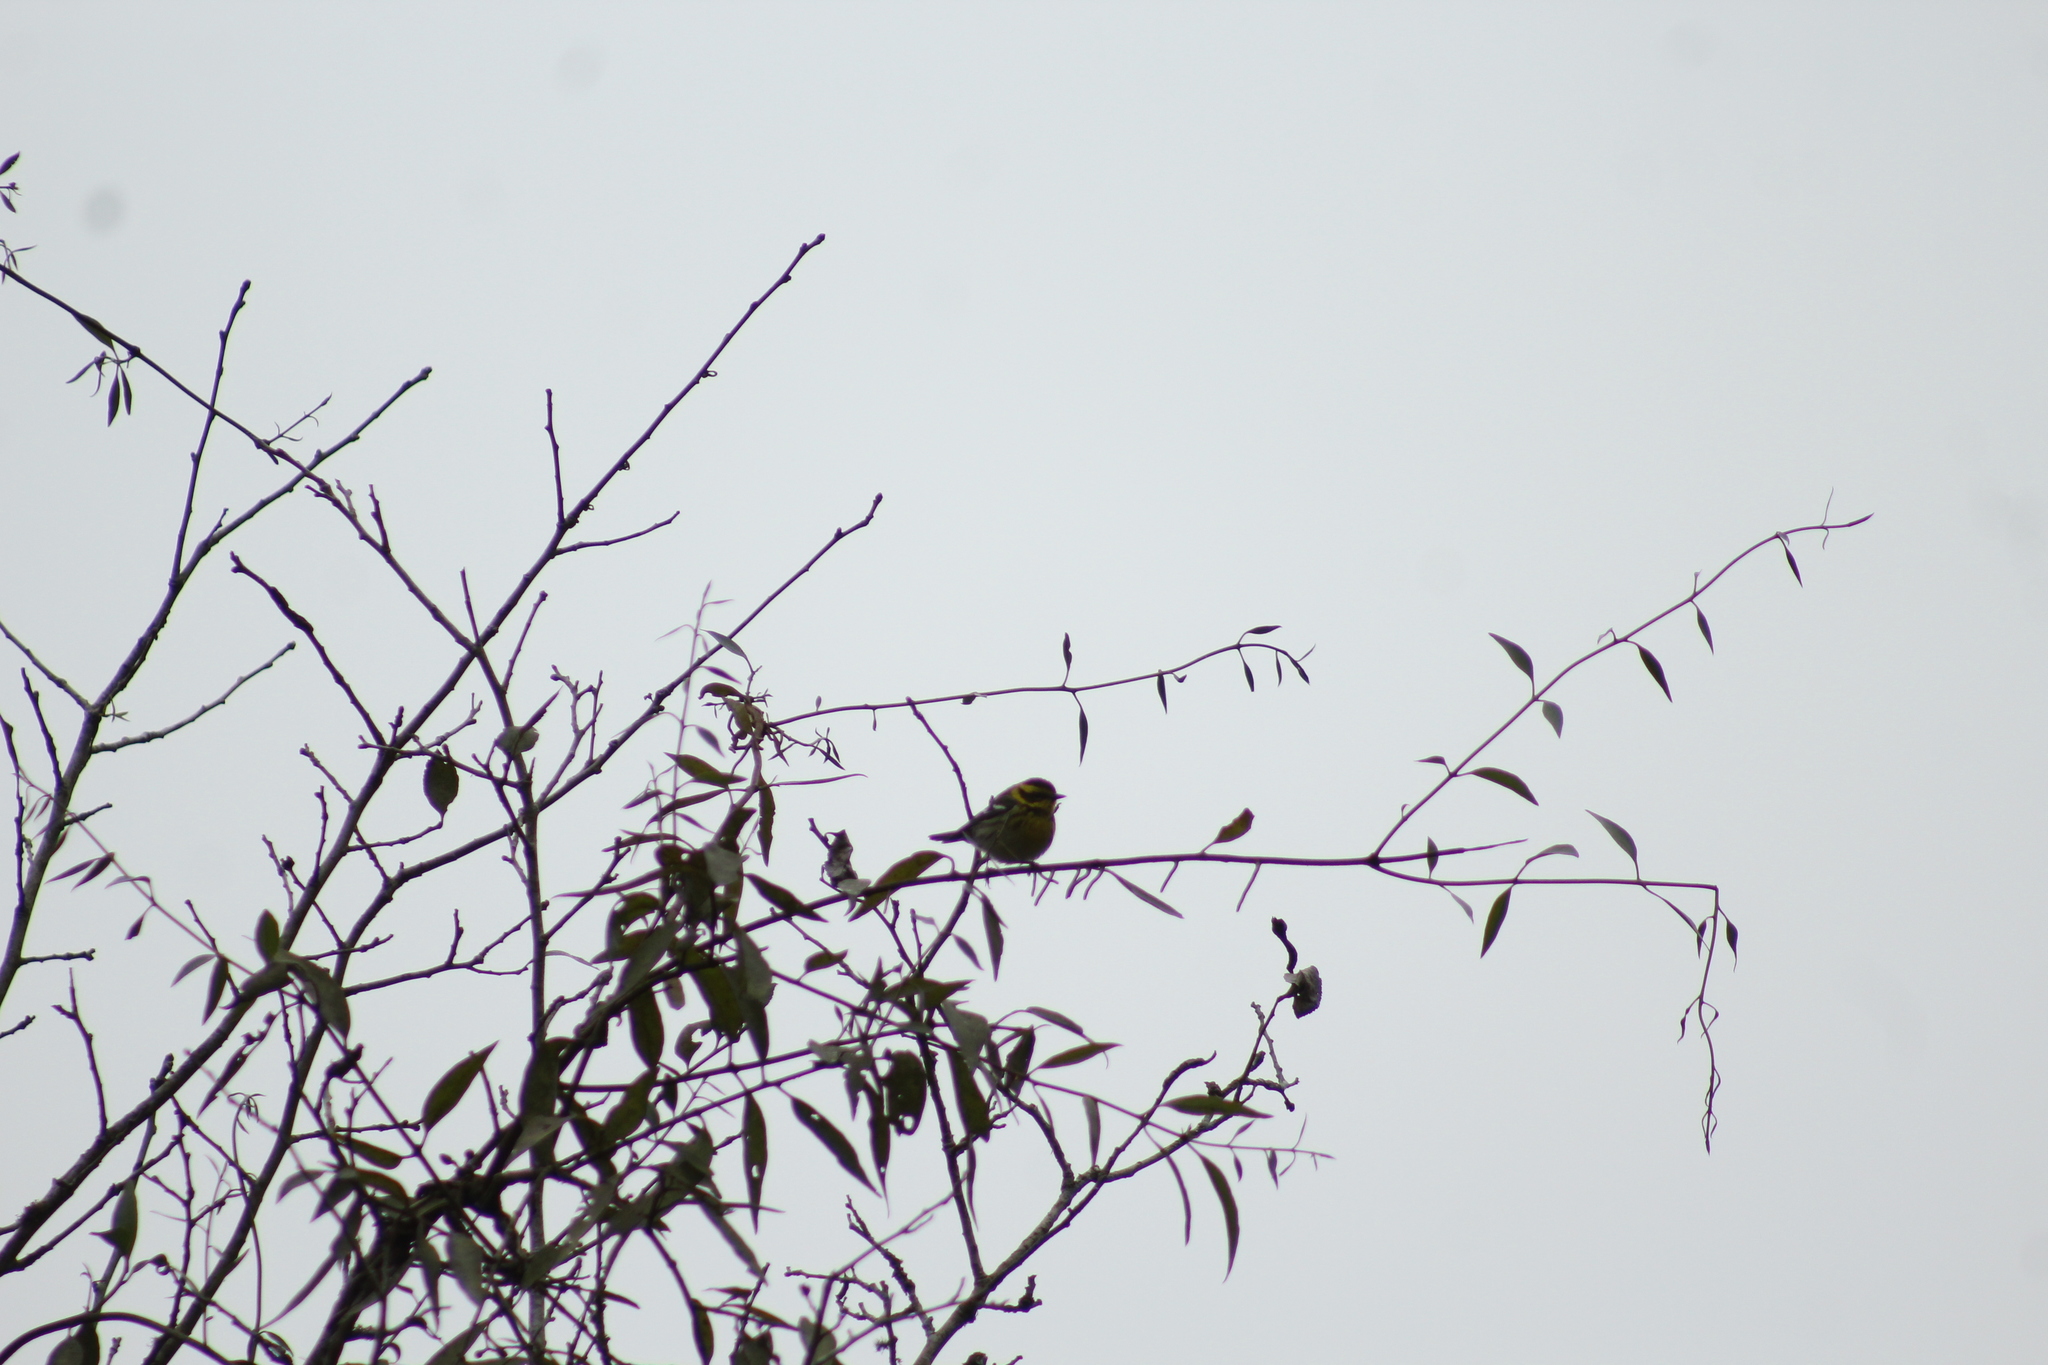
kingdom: Animalia
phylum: Chordata
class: Aves
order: Passeriformes
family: Parulidae
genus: Setophaga
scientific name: Setophaga townsendi
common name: Townsend's warbler
